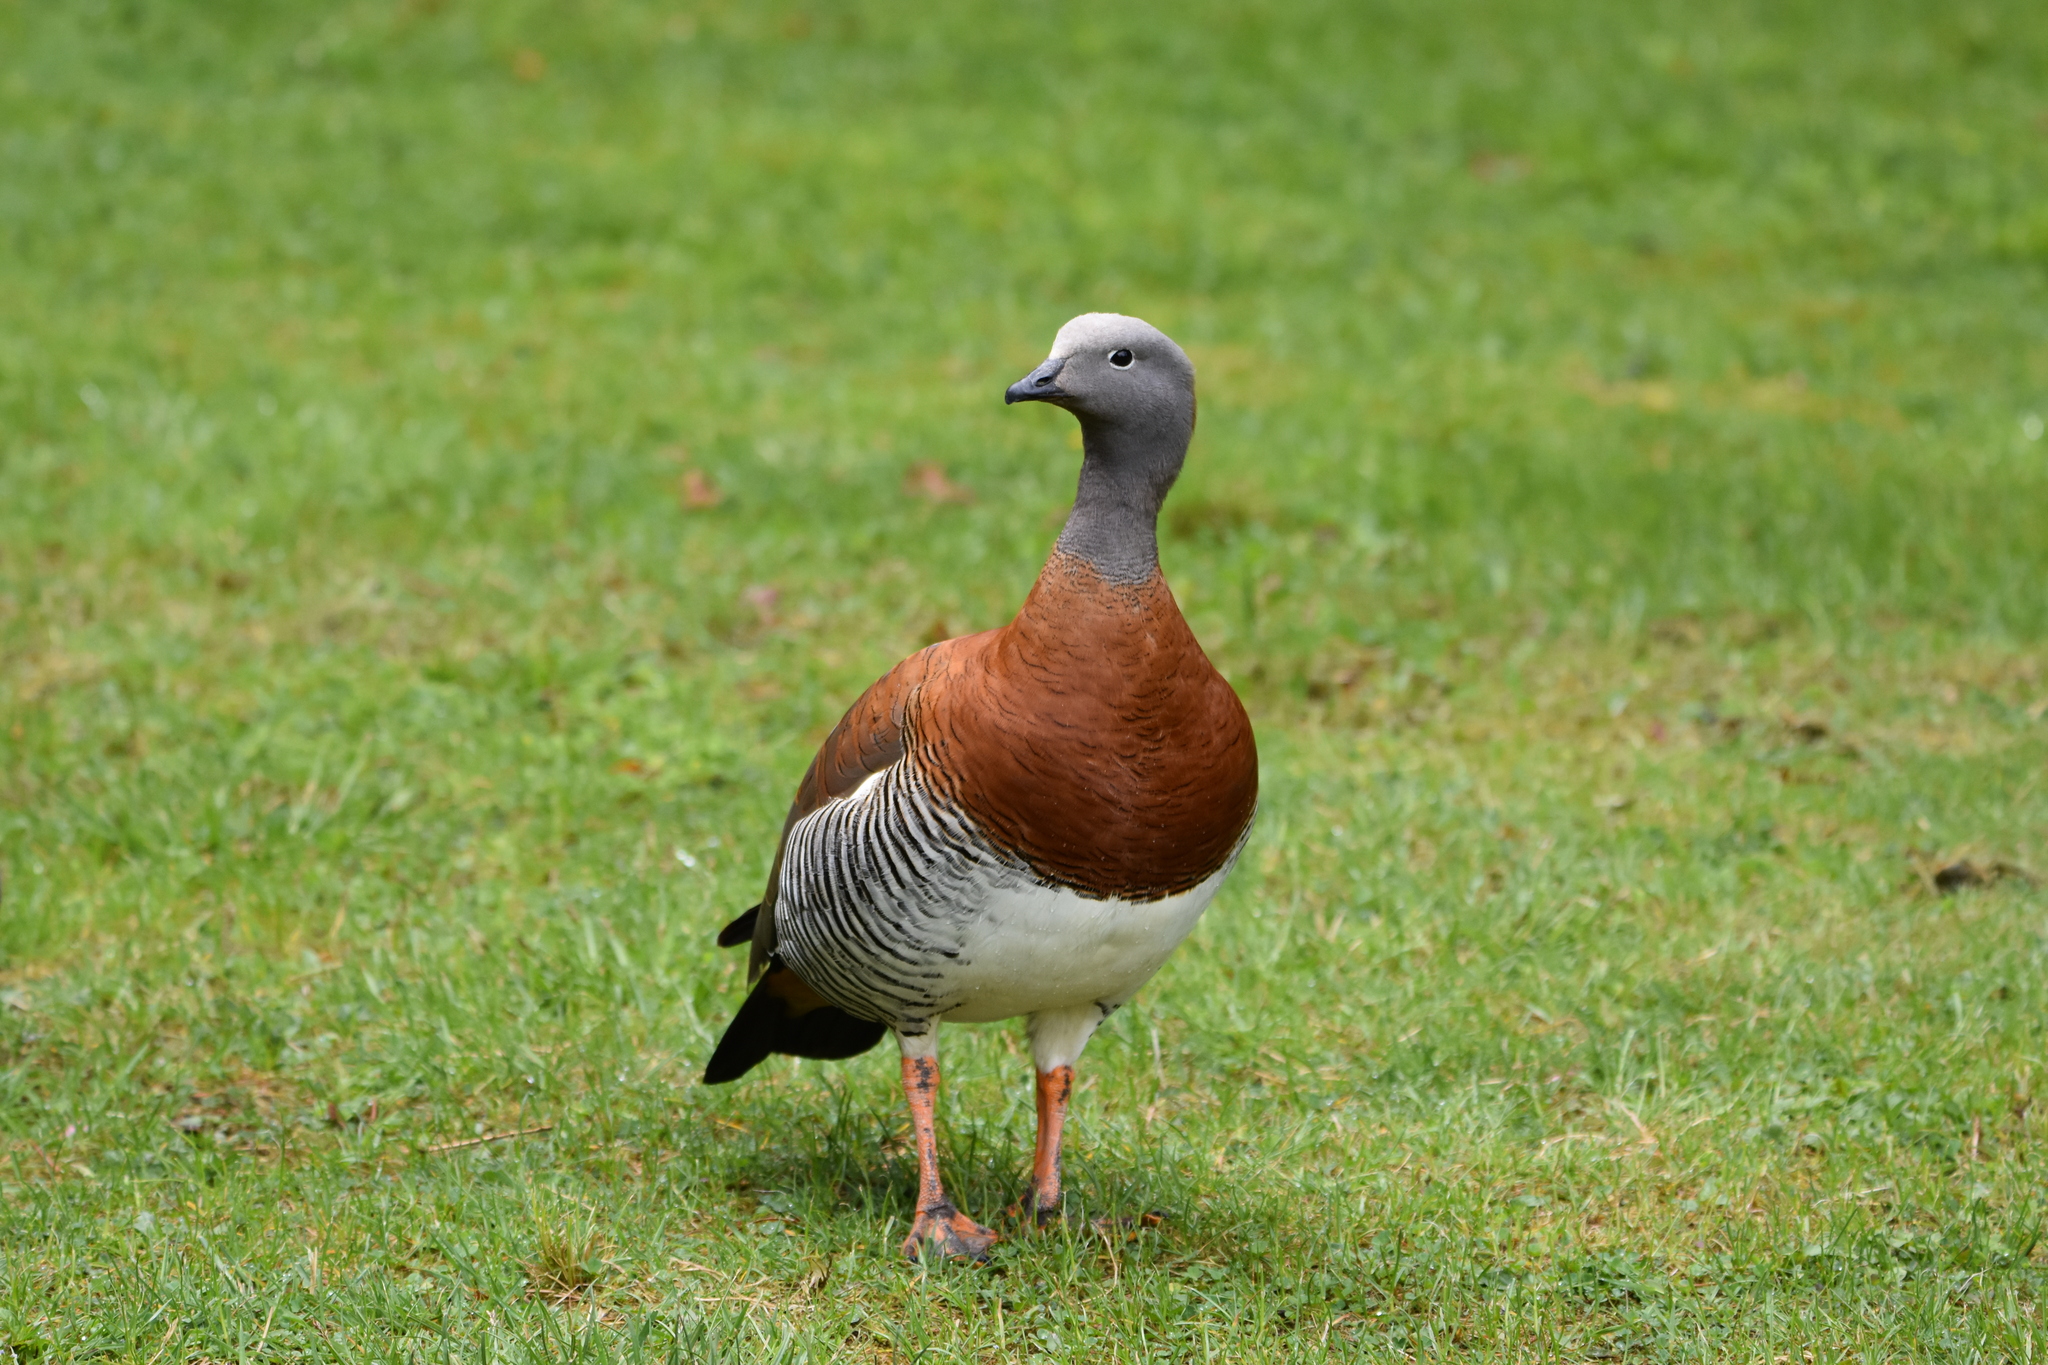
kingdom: Animalia
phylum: Chordata
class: Aves
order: Anseriformes
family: Anatidae
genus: Chloephaga
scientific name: Chloephaga poliocephala
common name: Ashy-headed goose
